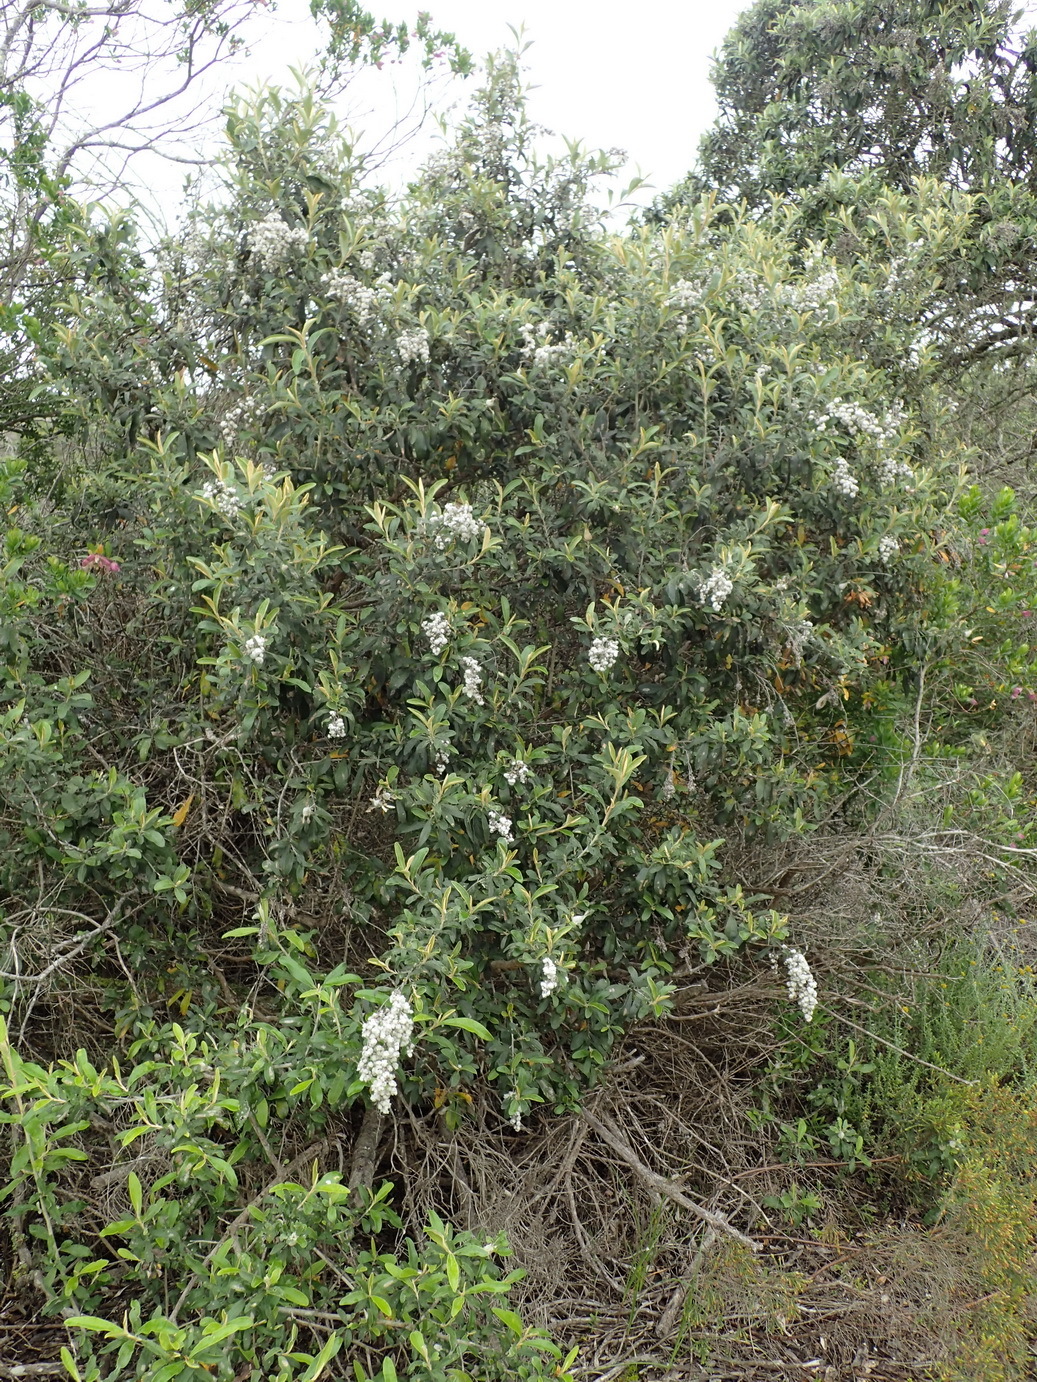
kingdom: Plantae
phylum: Tracheophyta
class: Magnoliopsida
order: Asterales
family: Asteraceae
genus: Tarchonanthus
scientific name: Tarchonanthus littoralis
